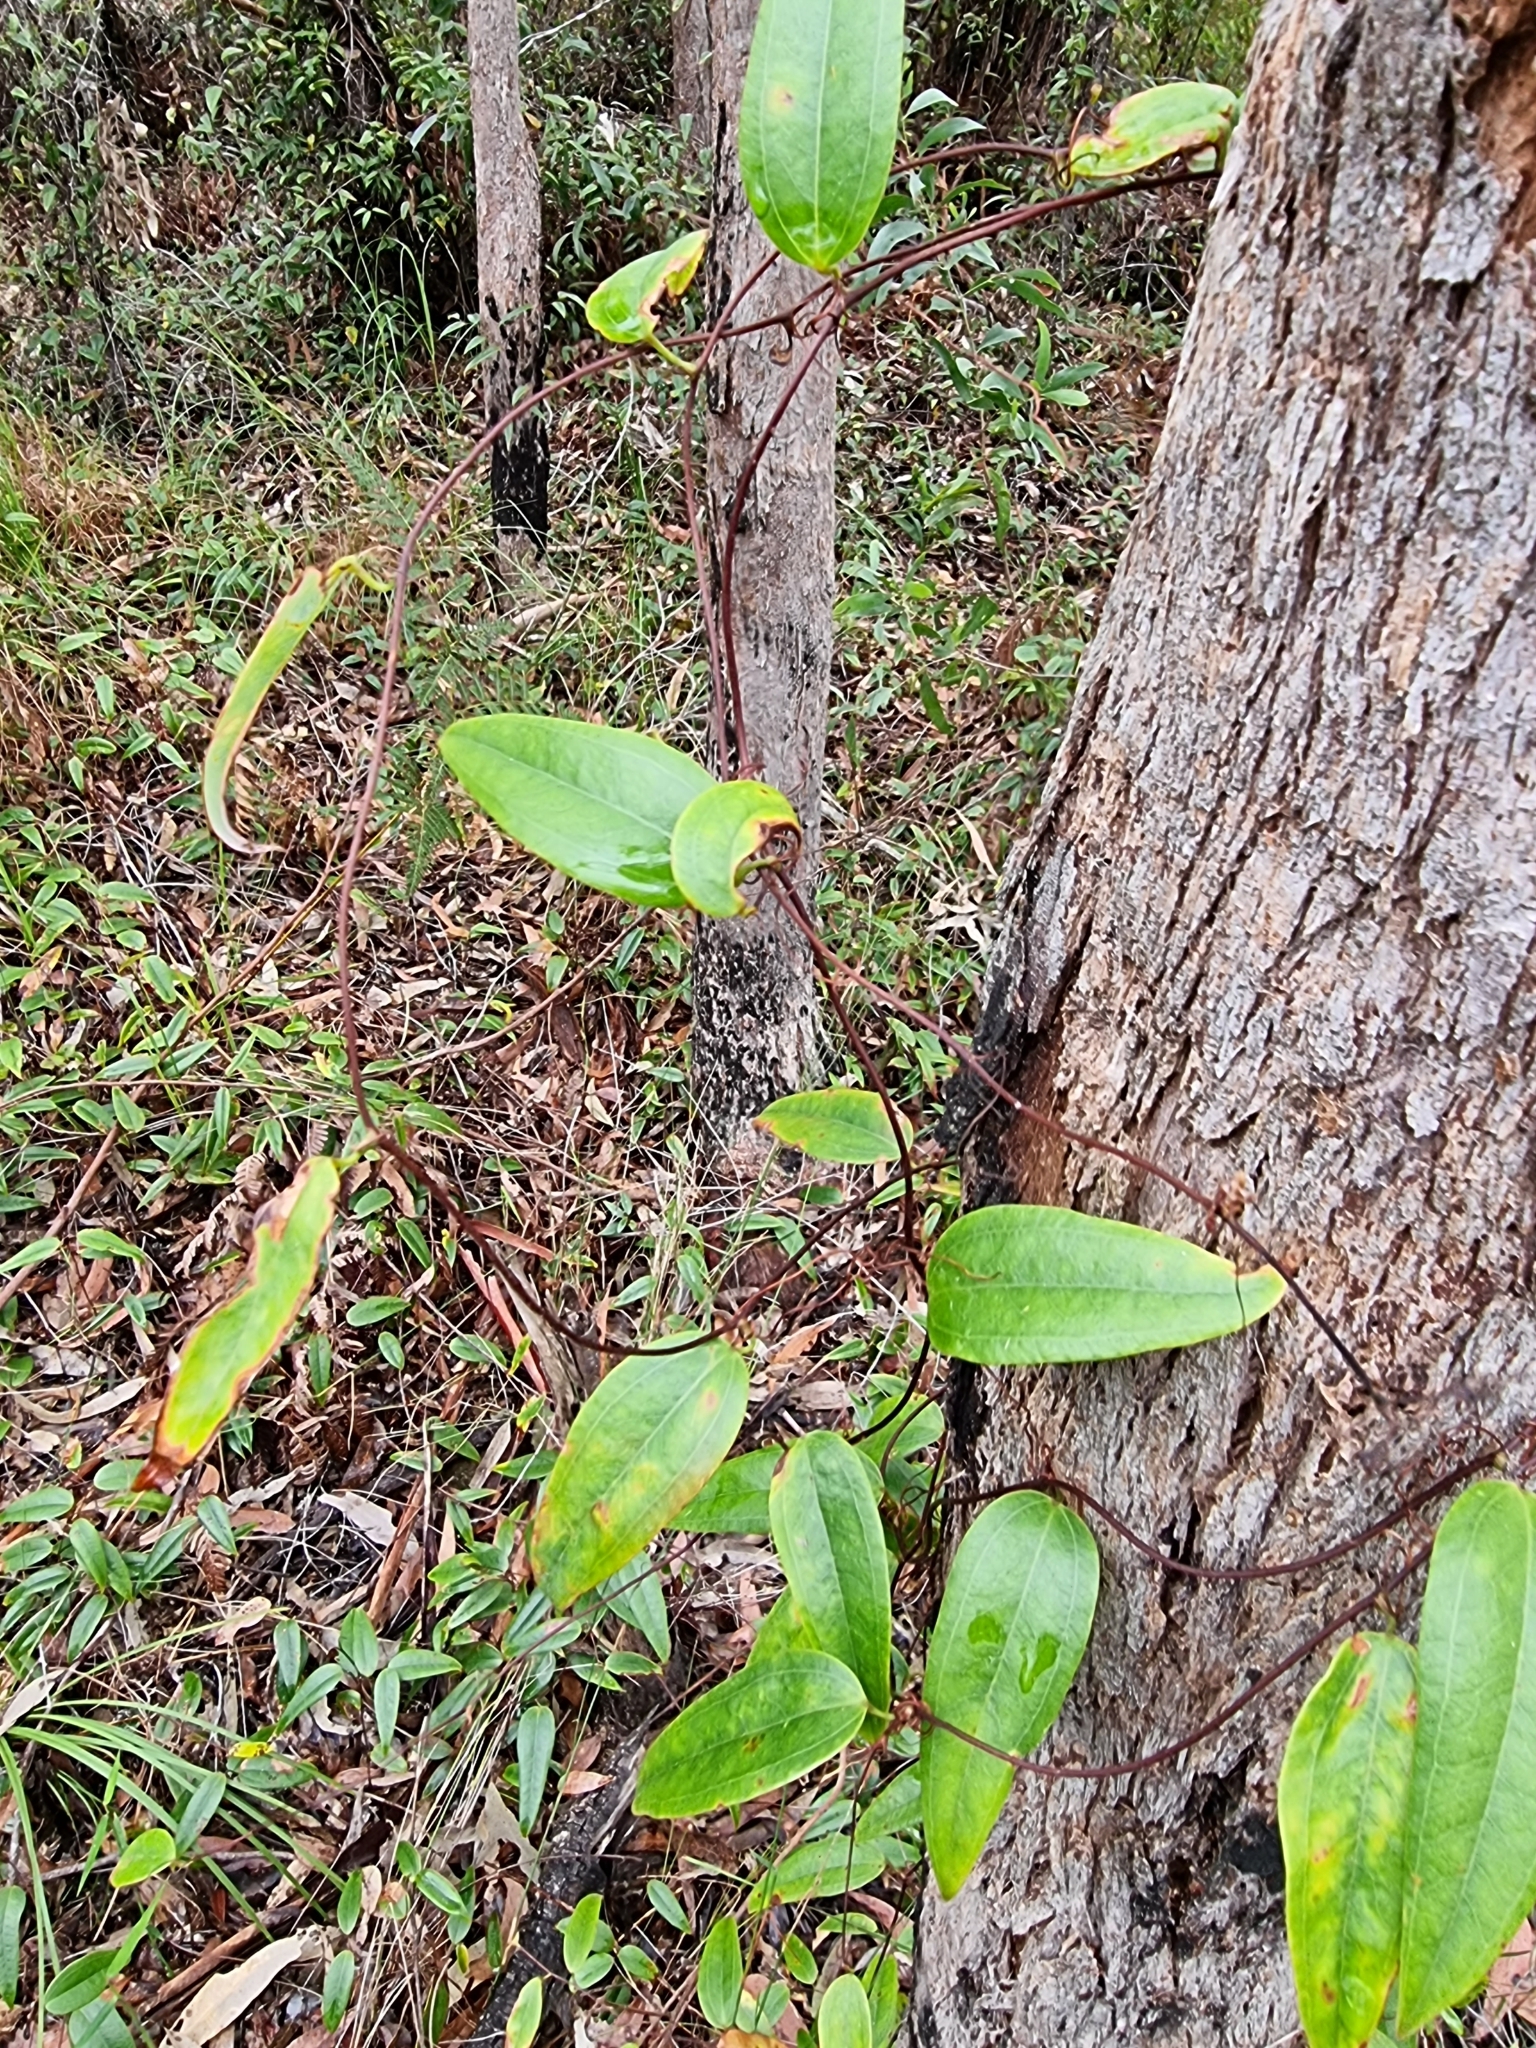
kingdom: Plantae
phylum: Tracheophyta
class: Liliopsida
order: Liliales
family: Smilacaceae
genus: Smilax
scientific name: Smilax glyciphylla
